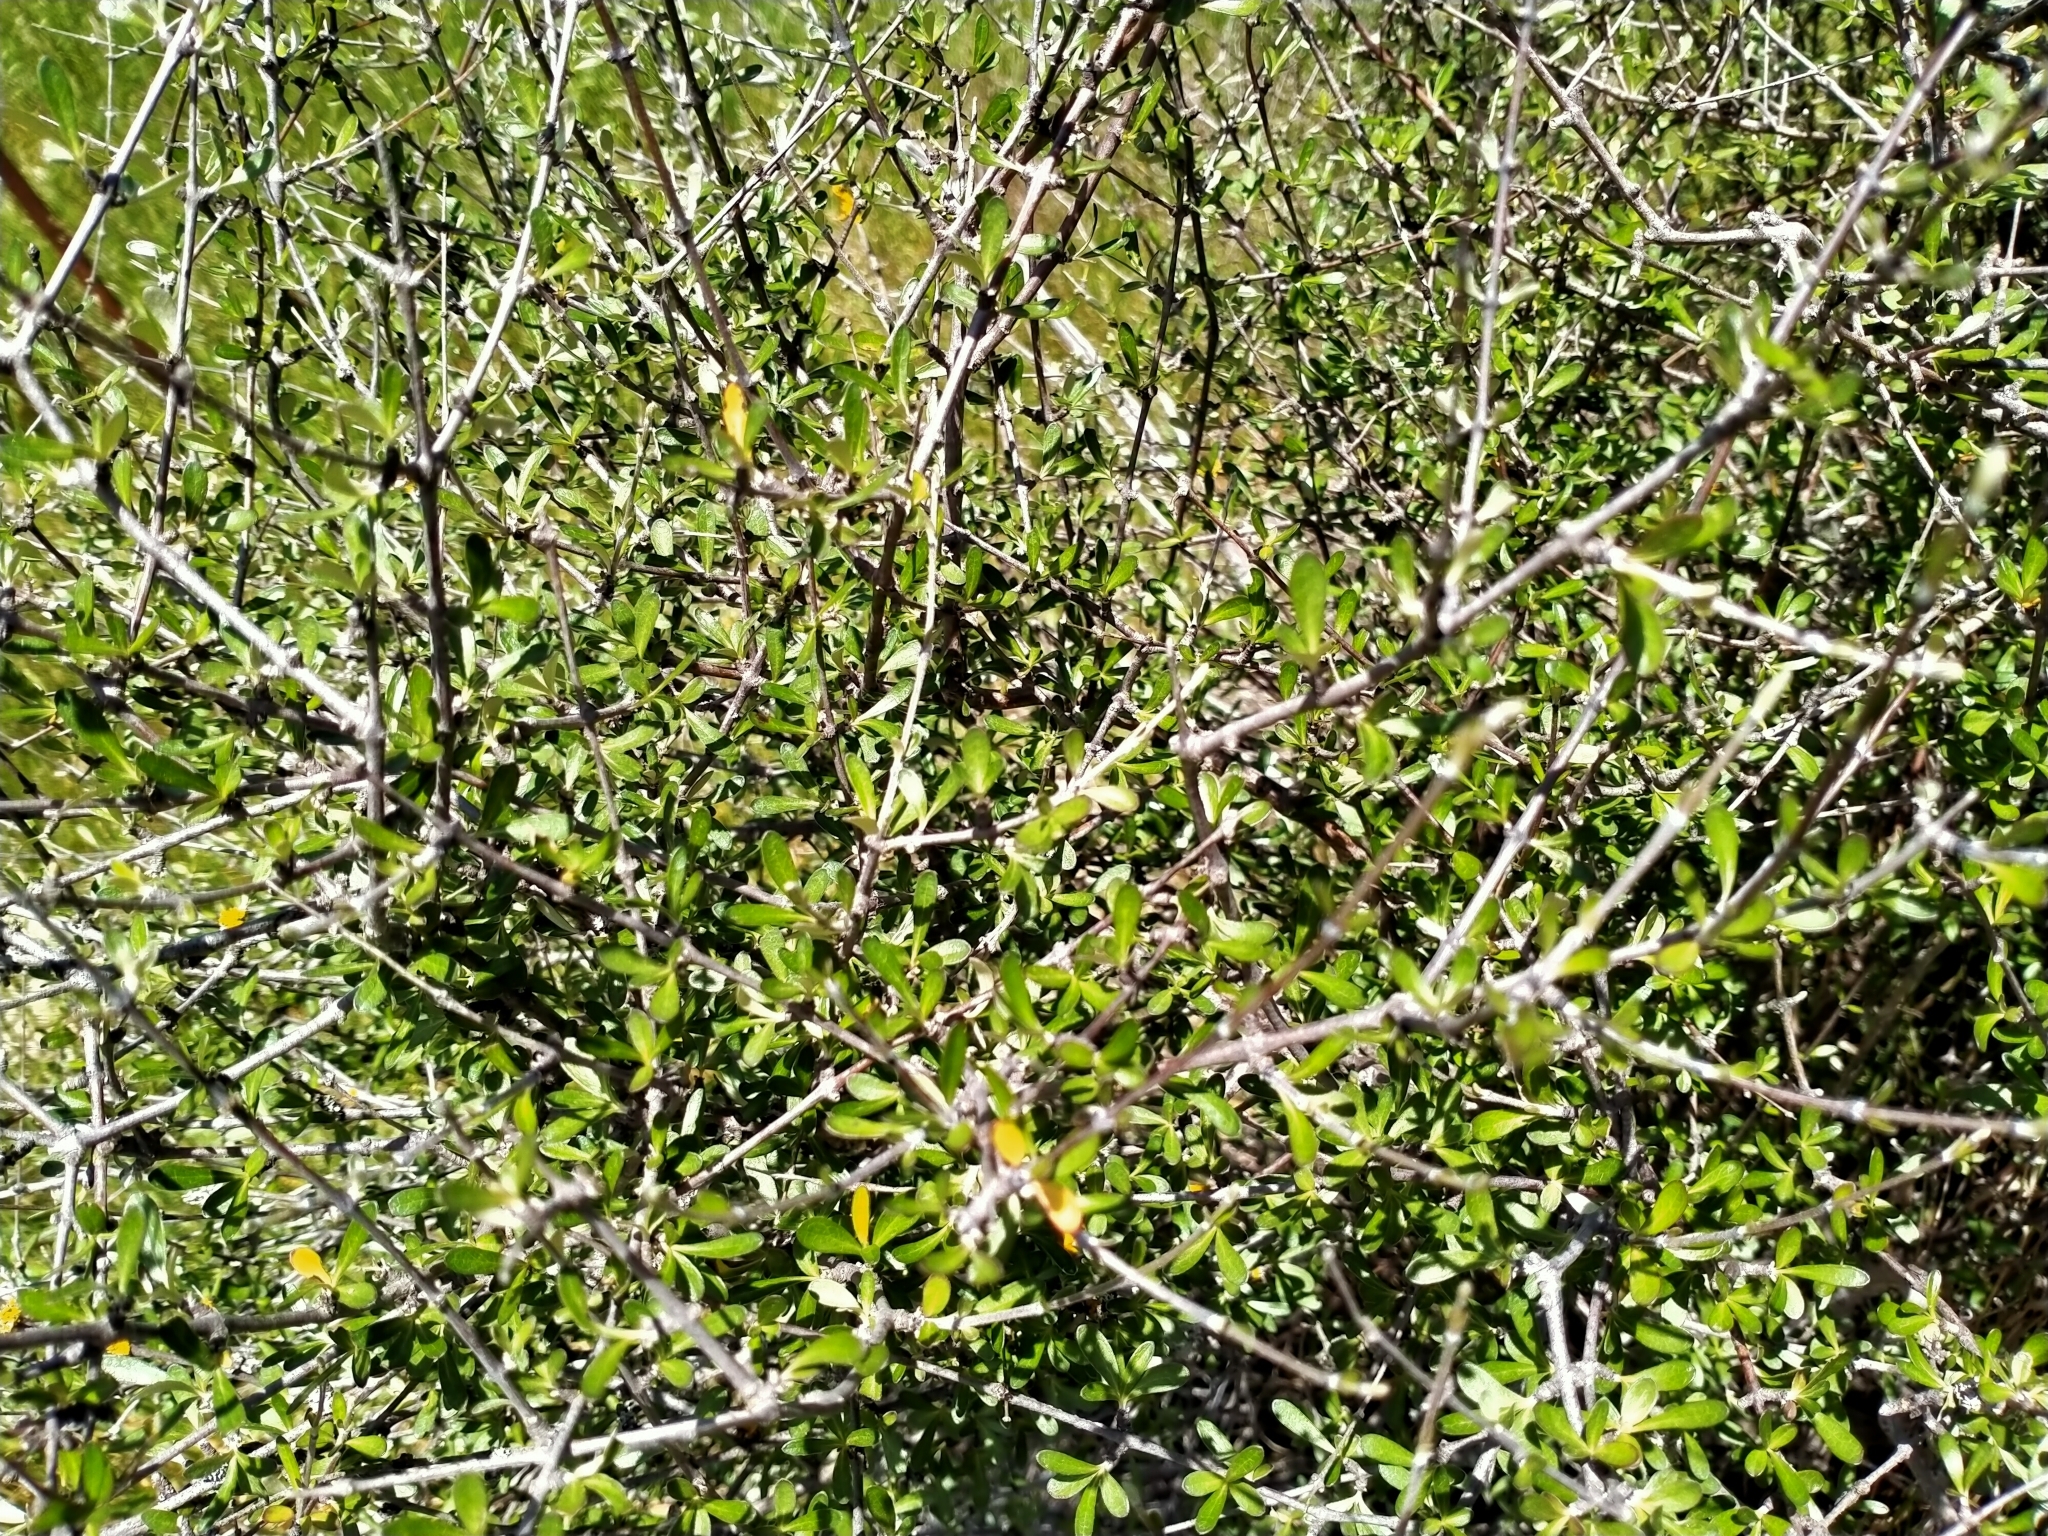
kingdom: Plantae
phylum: Tracheophyta
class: Magnoliopsida
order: Asterales
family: Asteraceae
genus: Olearia
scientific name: Olearia odorata
